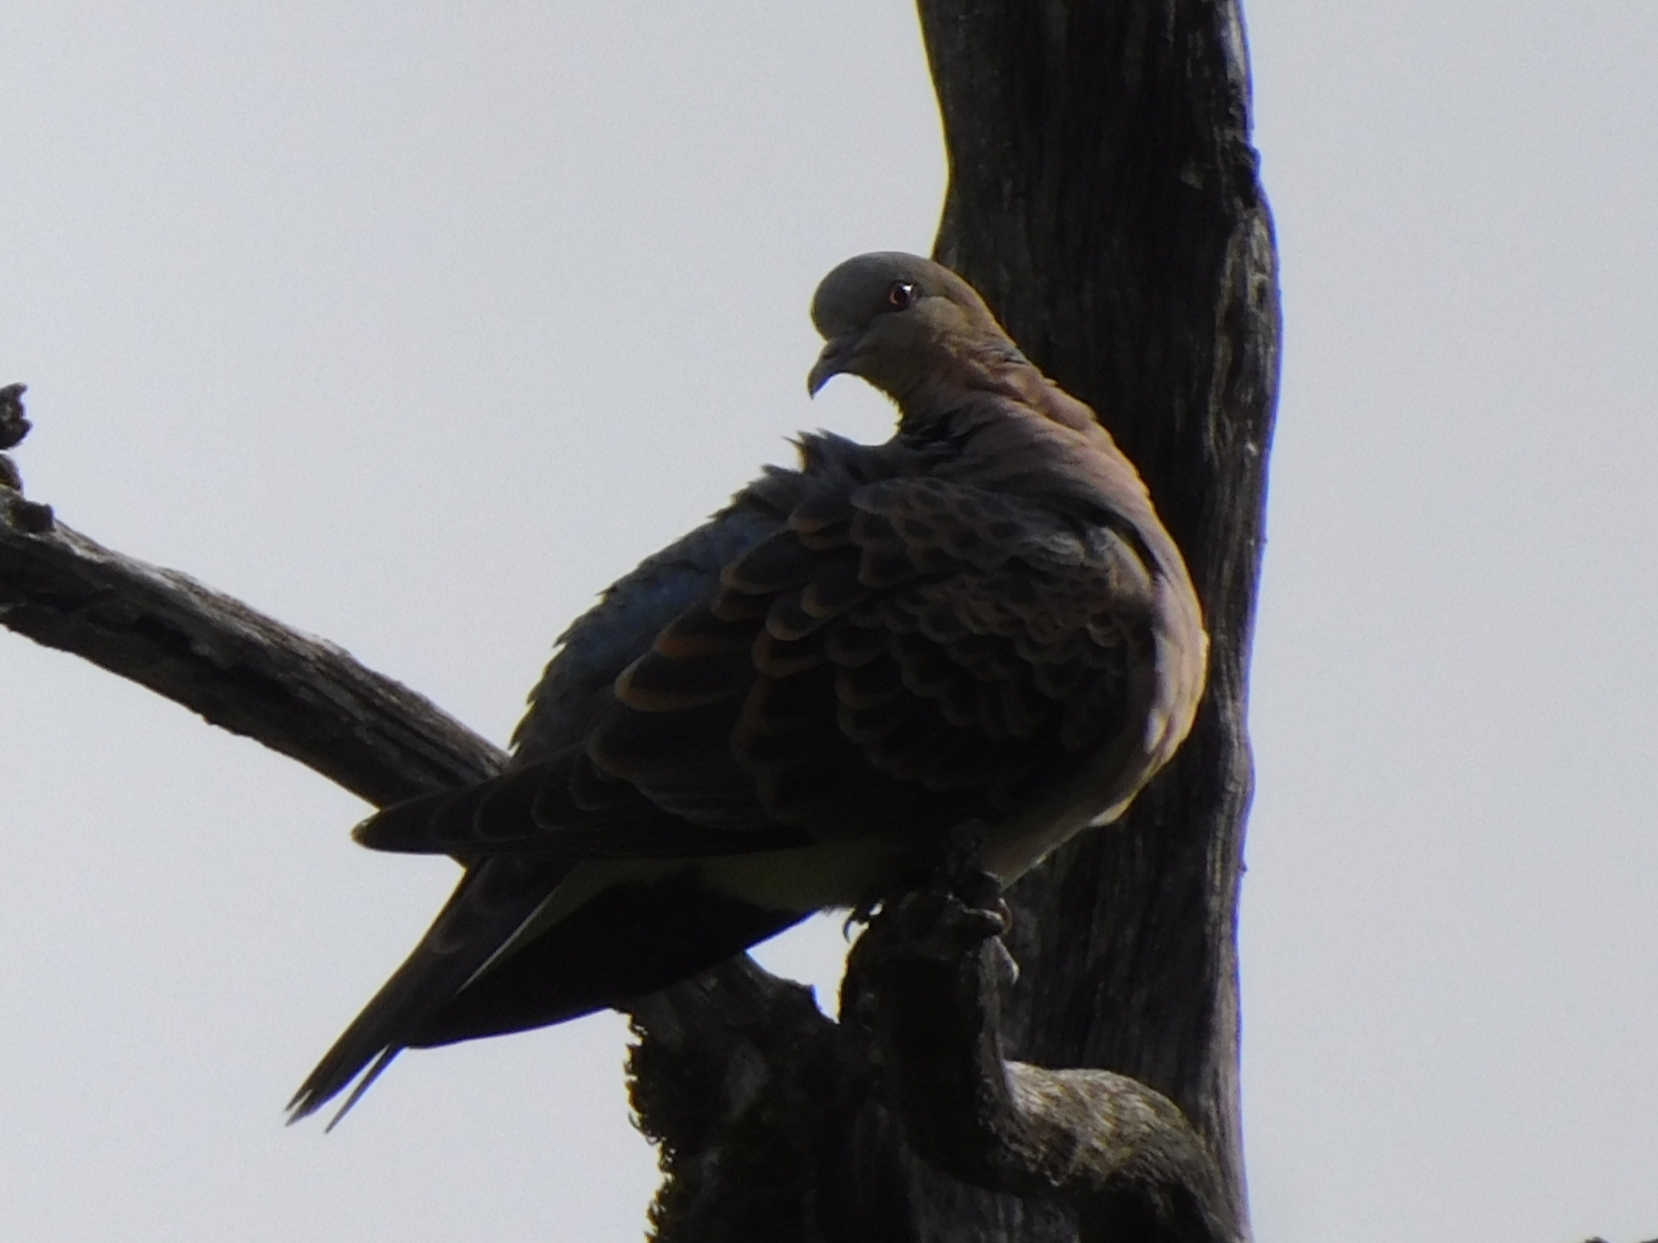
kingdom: Animalia
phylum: Chordata
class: Aves
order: Columbiformes
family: Columbidae
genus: Streptopelia
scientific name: Streptopelia orientalis
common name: Oriental turtle dove
